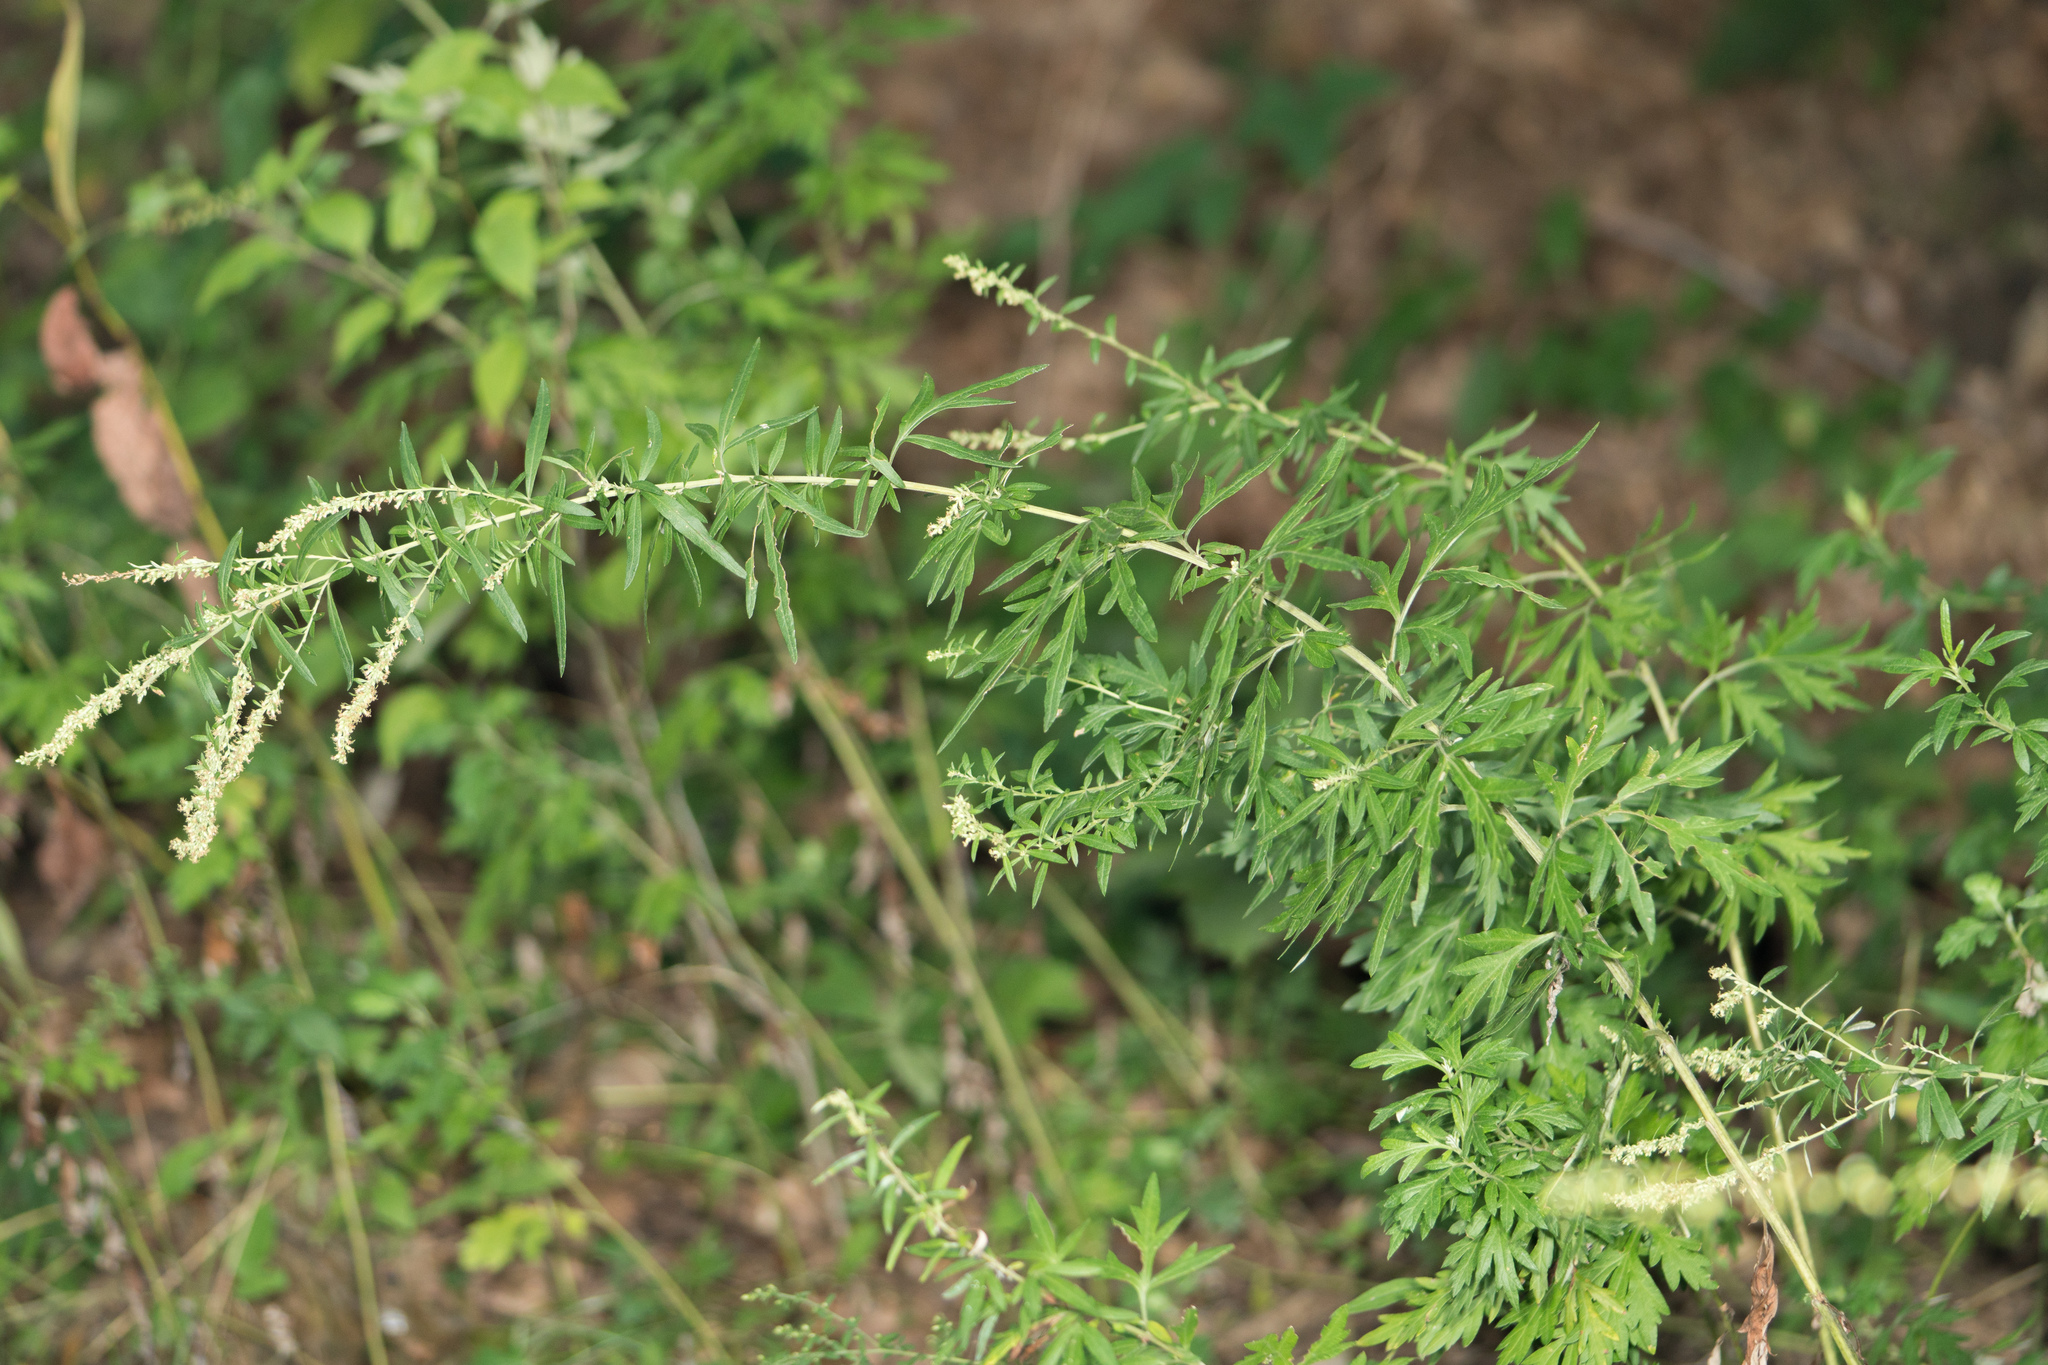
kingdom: Plantae
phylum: Tracheophyta
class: Magnoliopsida
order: Asterales
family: Asteraceae
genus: Artemisia
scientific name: Artemisia vulgaris
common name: Mugwort
